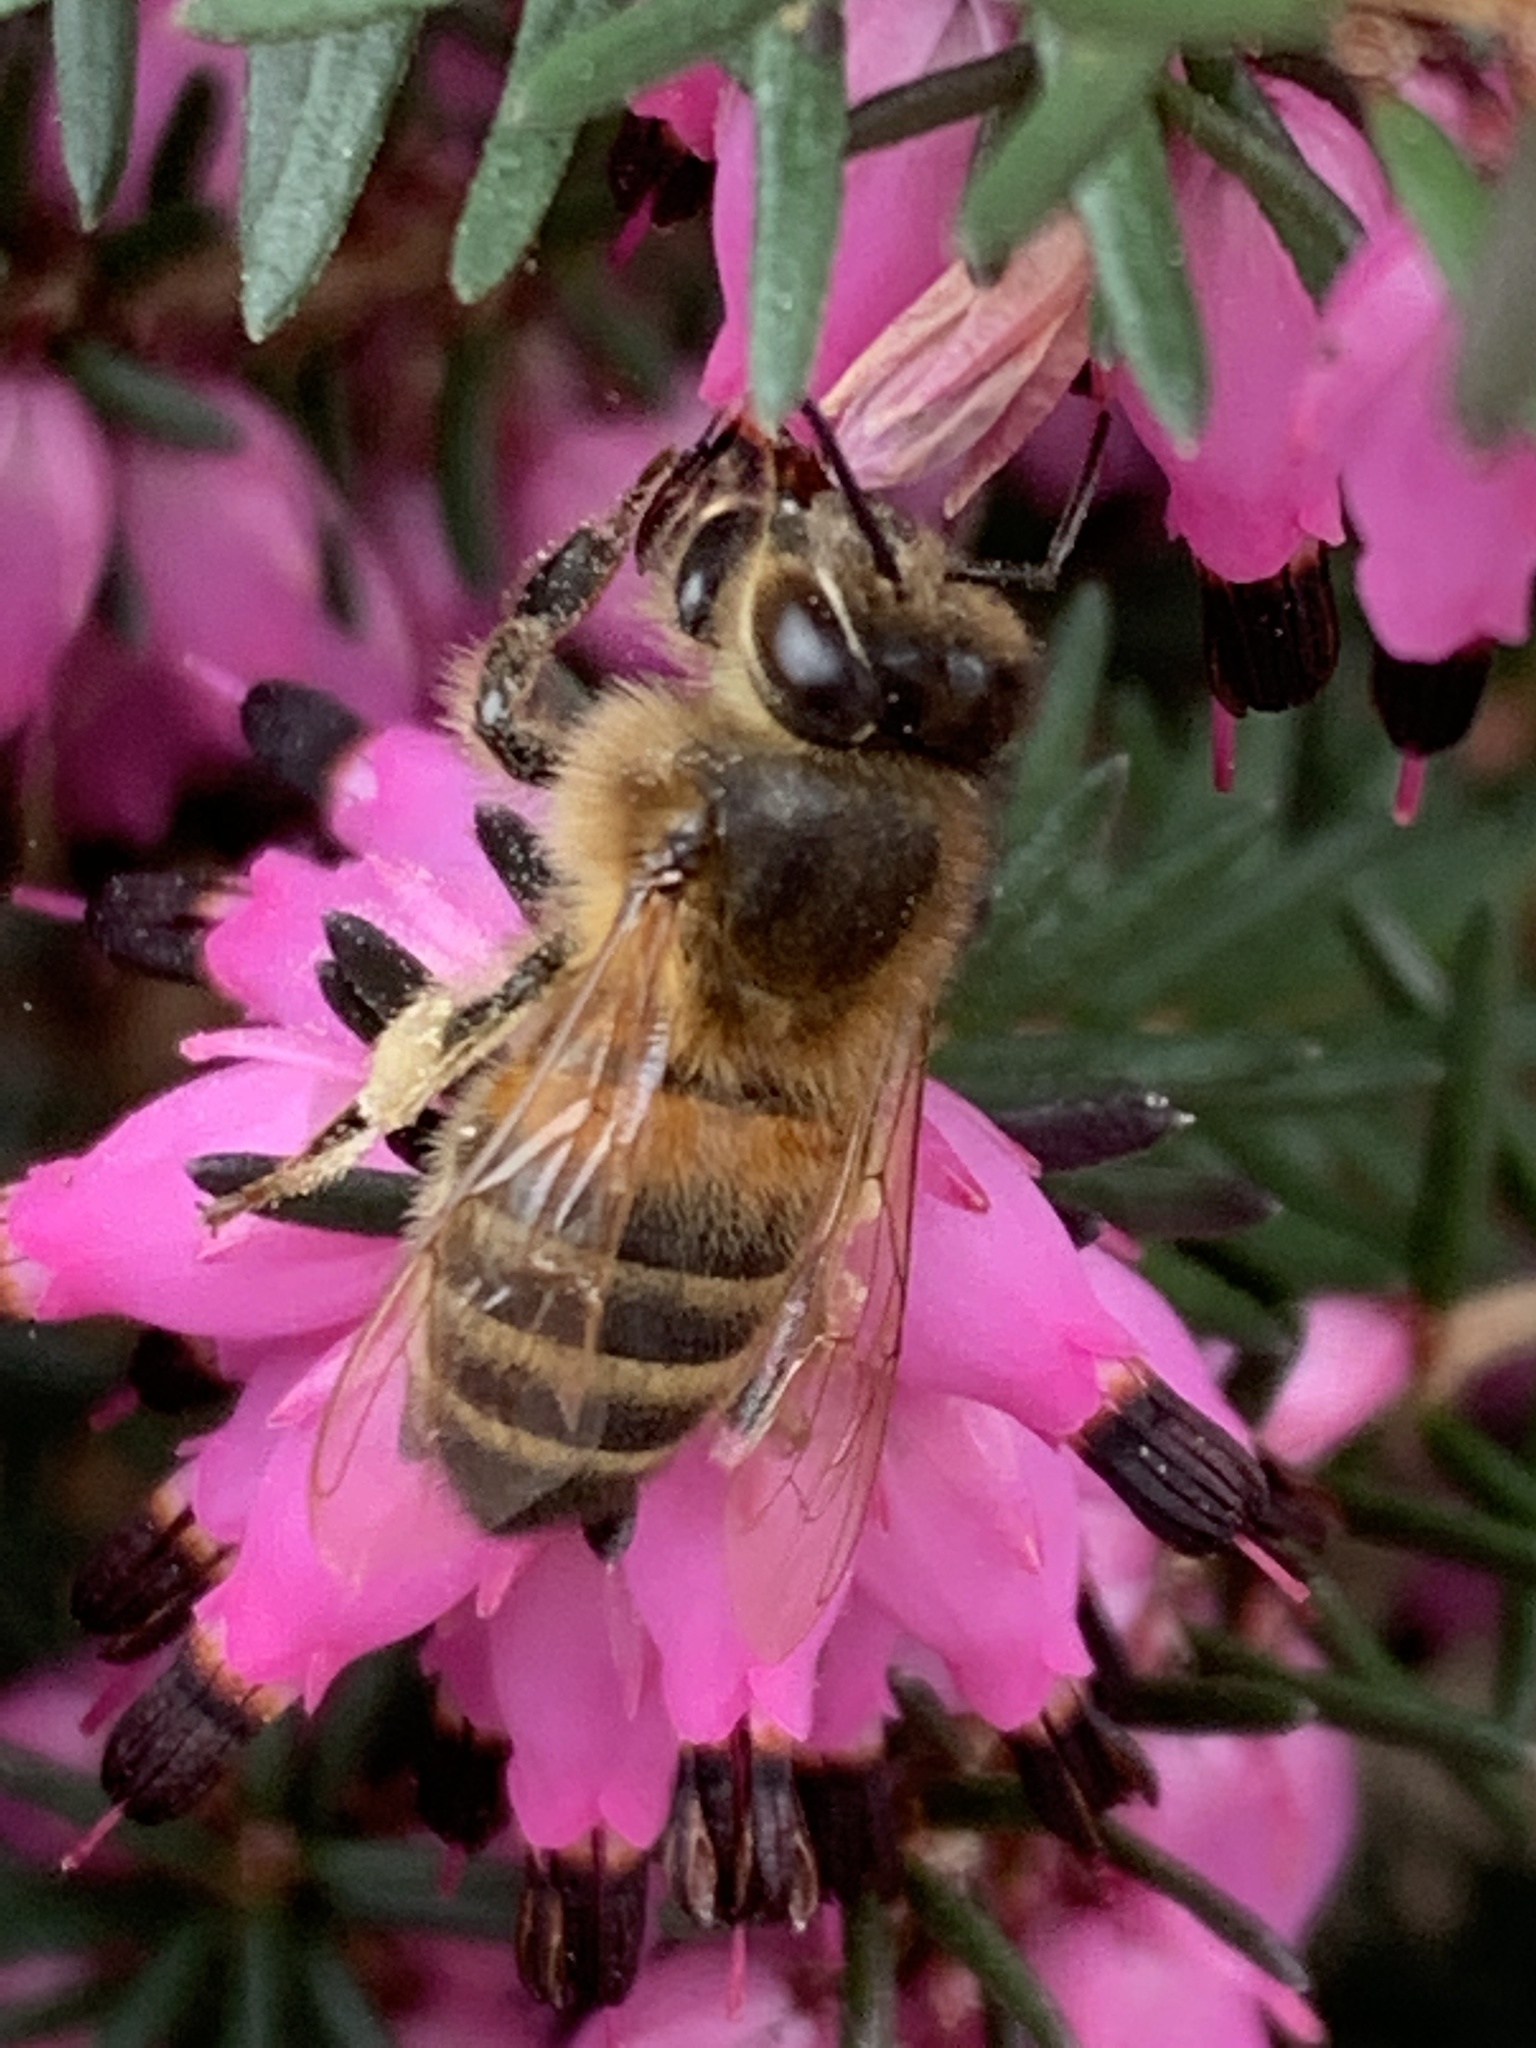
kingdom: Animalia
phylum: Arthropoda
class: Insecta
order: Hymenoptera
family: Apidae
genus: Apis
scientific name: Apis mellifera
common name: Honey bee
